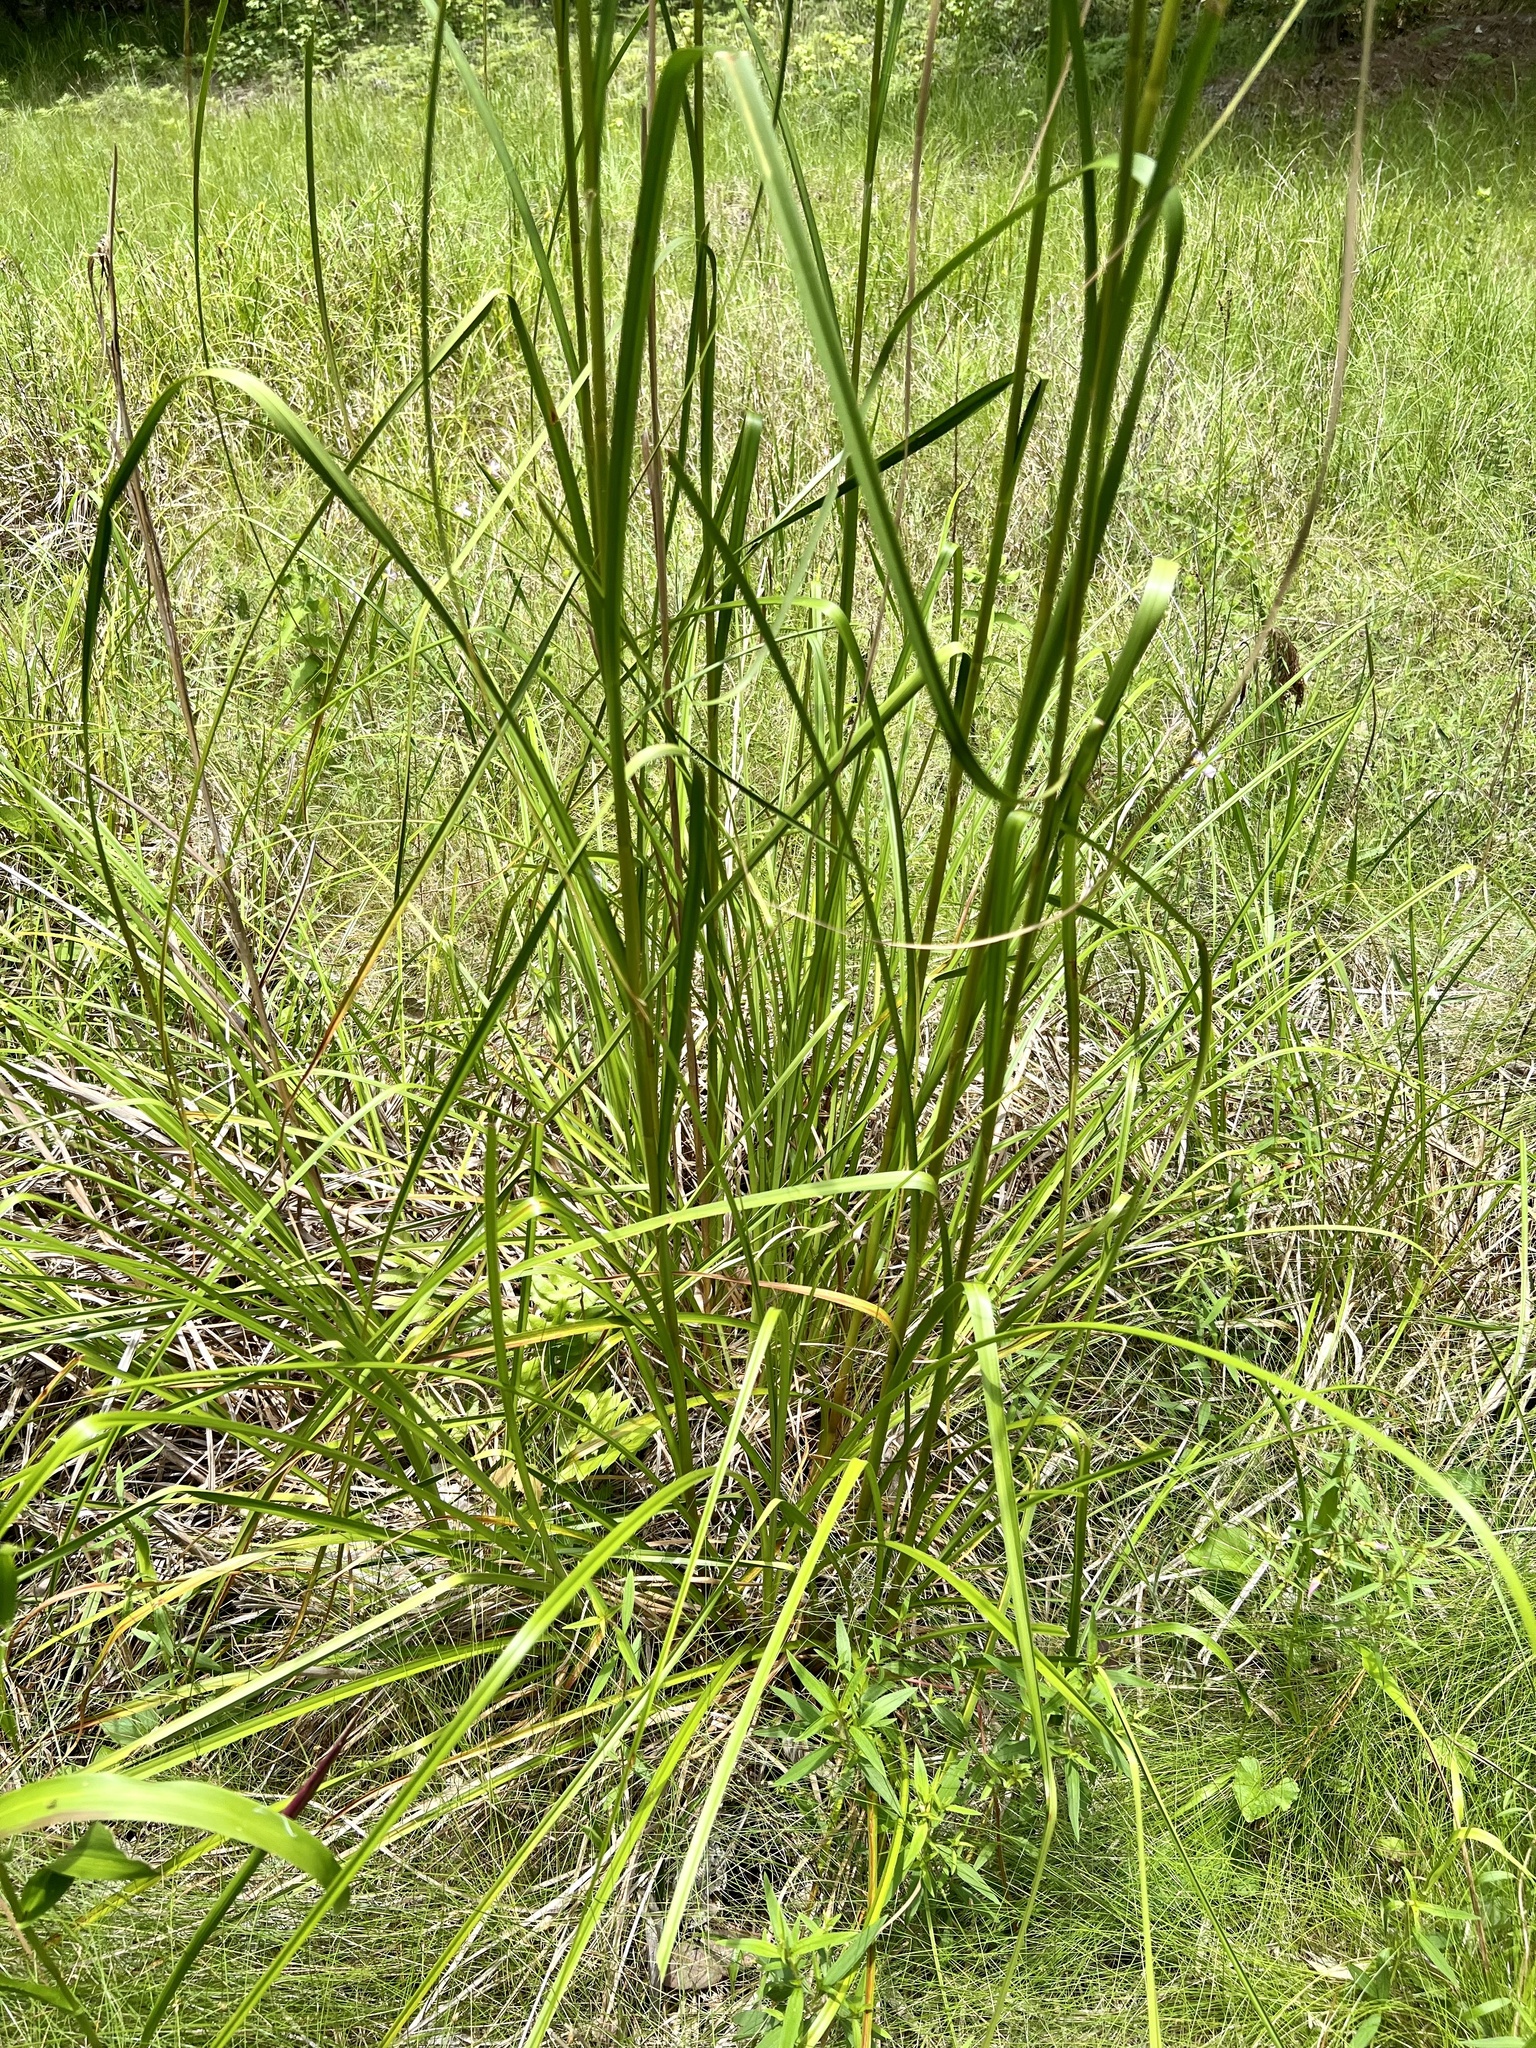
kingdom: Plantae
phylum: Tracheophyta
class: Liliopsida
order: Poales
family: Cyperaceae
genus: Scirpus
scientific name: Scirpus cyperinus
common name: Black-sheathed bulrush
